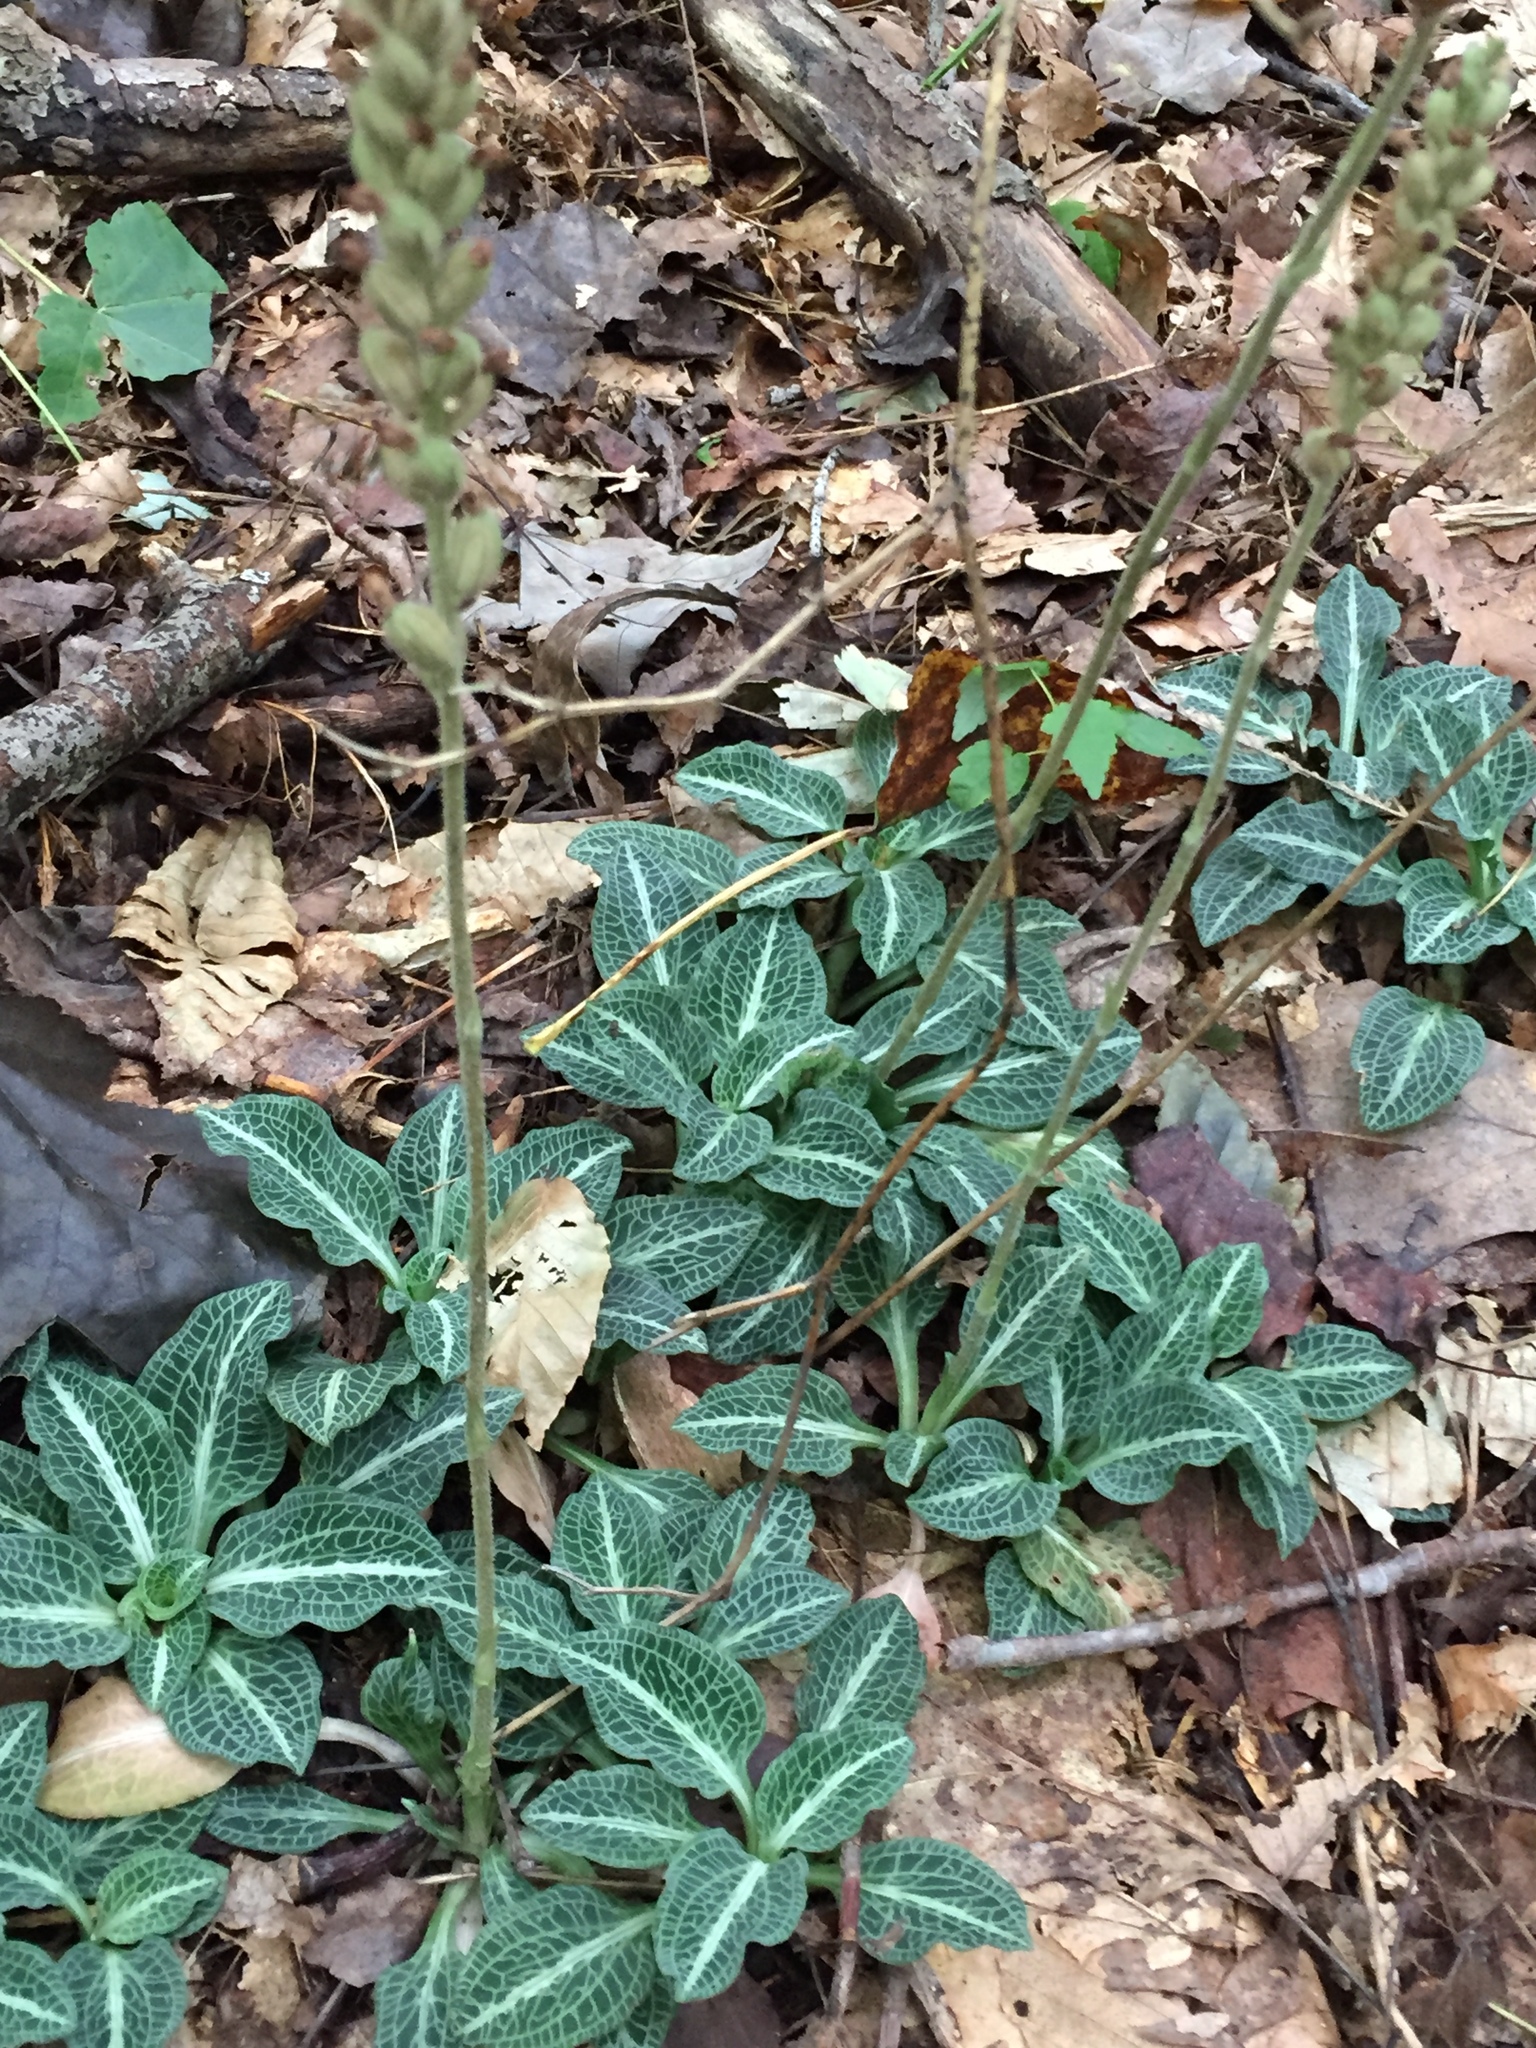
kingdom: Plantae
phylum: Tracheophyta
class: Liliopsida
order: Asparagales
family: Orchidaceae
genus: Goodyera
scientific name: Goodyera pubescens
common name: Downy rattlesnake-plantain
